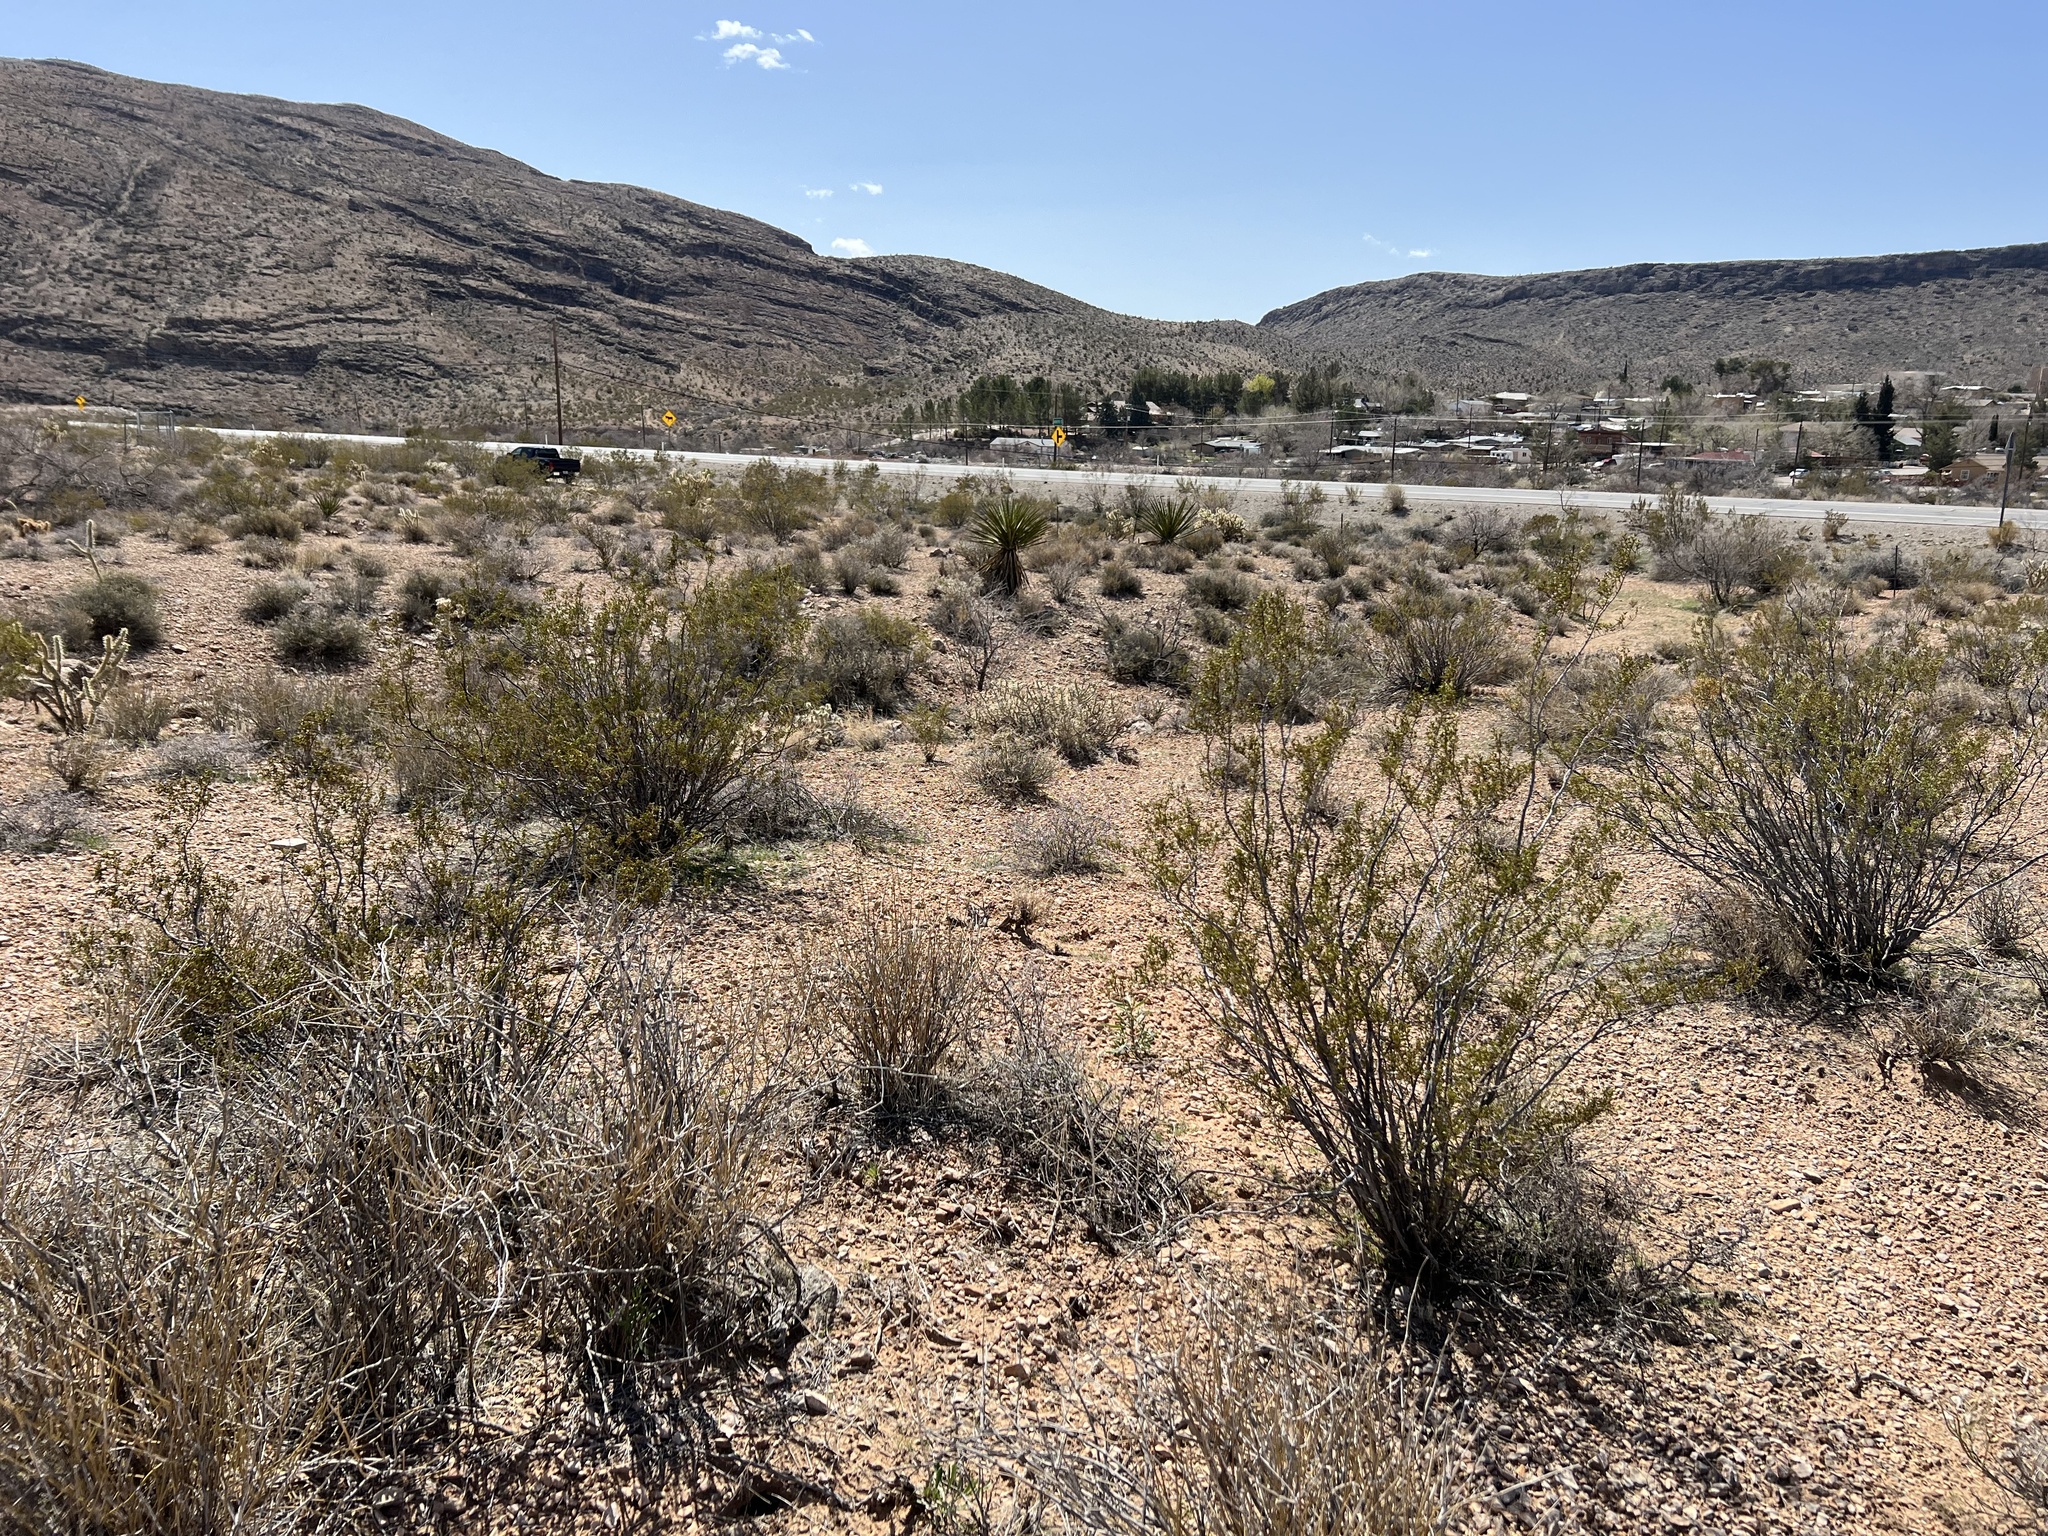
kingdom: Plantae
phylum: Tracheophyta
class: Magnoliopsida
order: Zygophyllales
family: Zygophyllaceae
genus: Larrea
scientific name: Larrea tridentata
